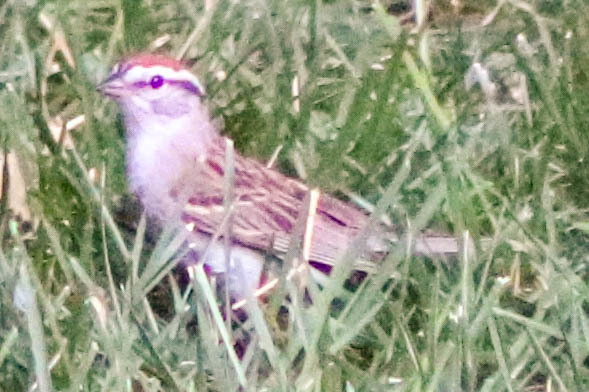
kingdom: Animalia
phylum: Chordata
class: Aves
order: Passeriformes
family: Passerellidae
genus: Spizella
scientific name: Spizella passerina
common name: Chipping sparrow
